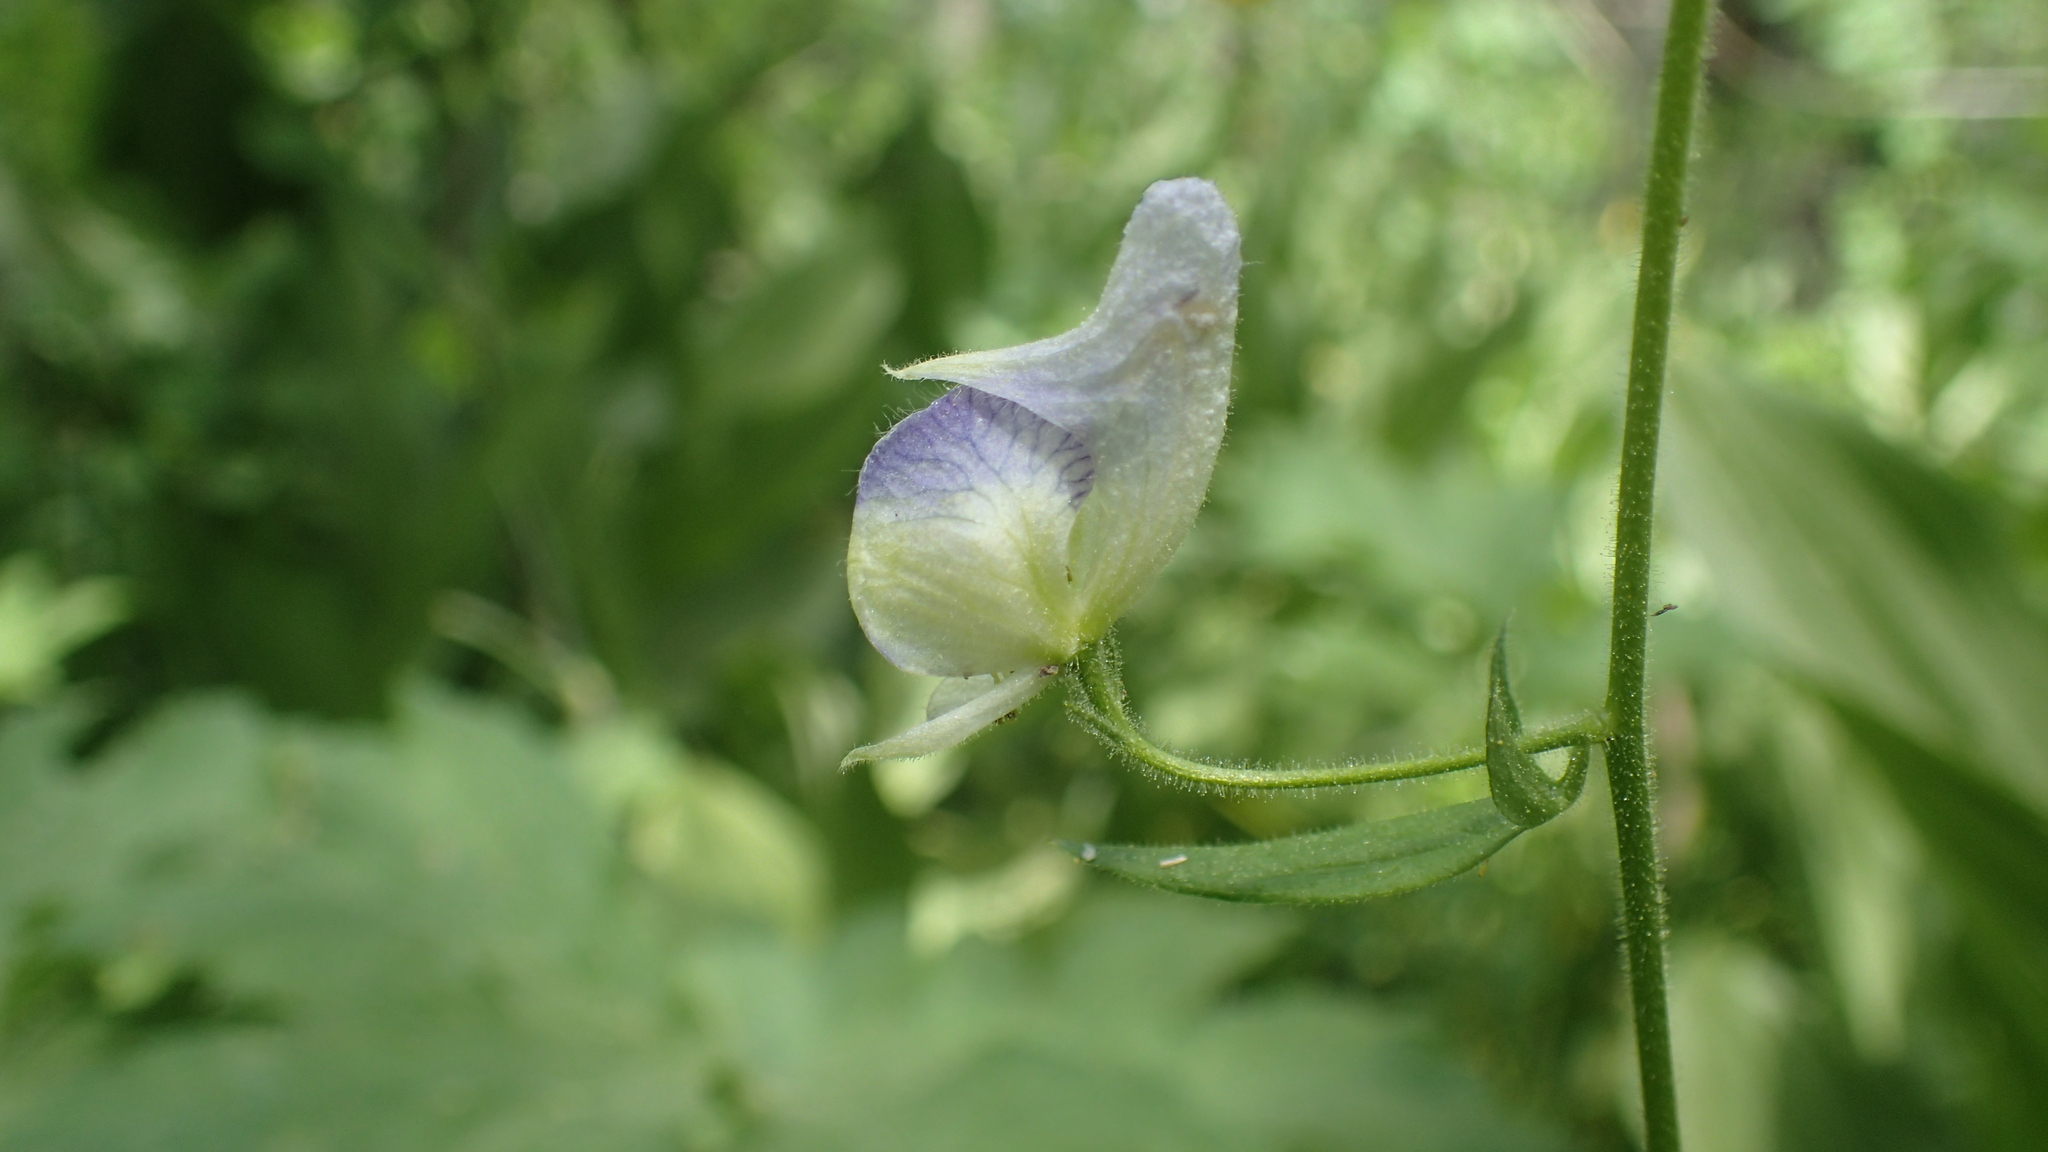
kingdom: Plantae
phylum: Tracheophyta
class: Magnoliopsida
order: Ranunculales
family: Ranunculaceae
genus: Aconitum
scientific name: Aconitum columbianum
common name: Columbia aconite
